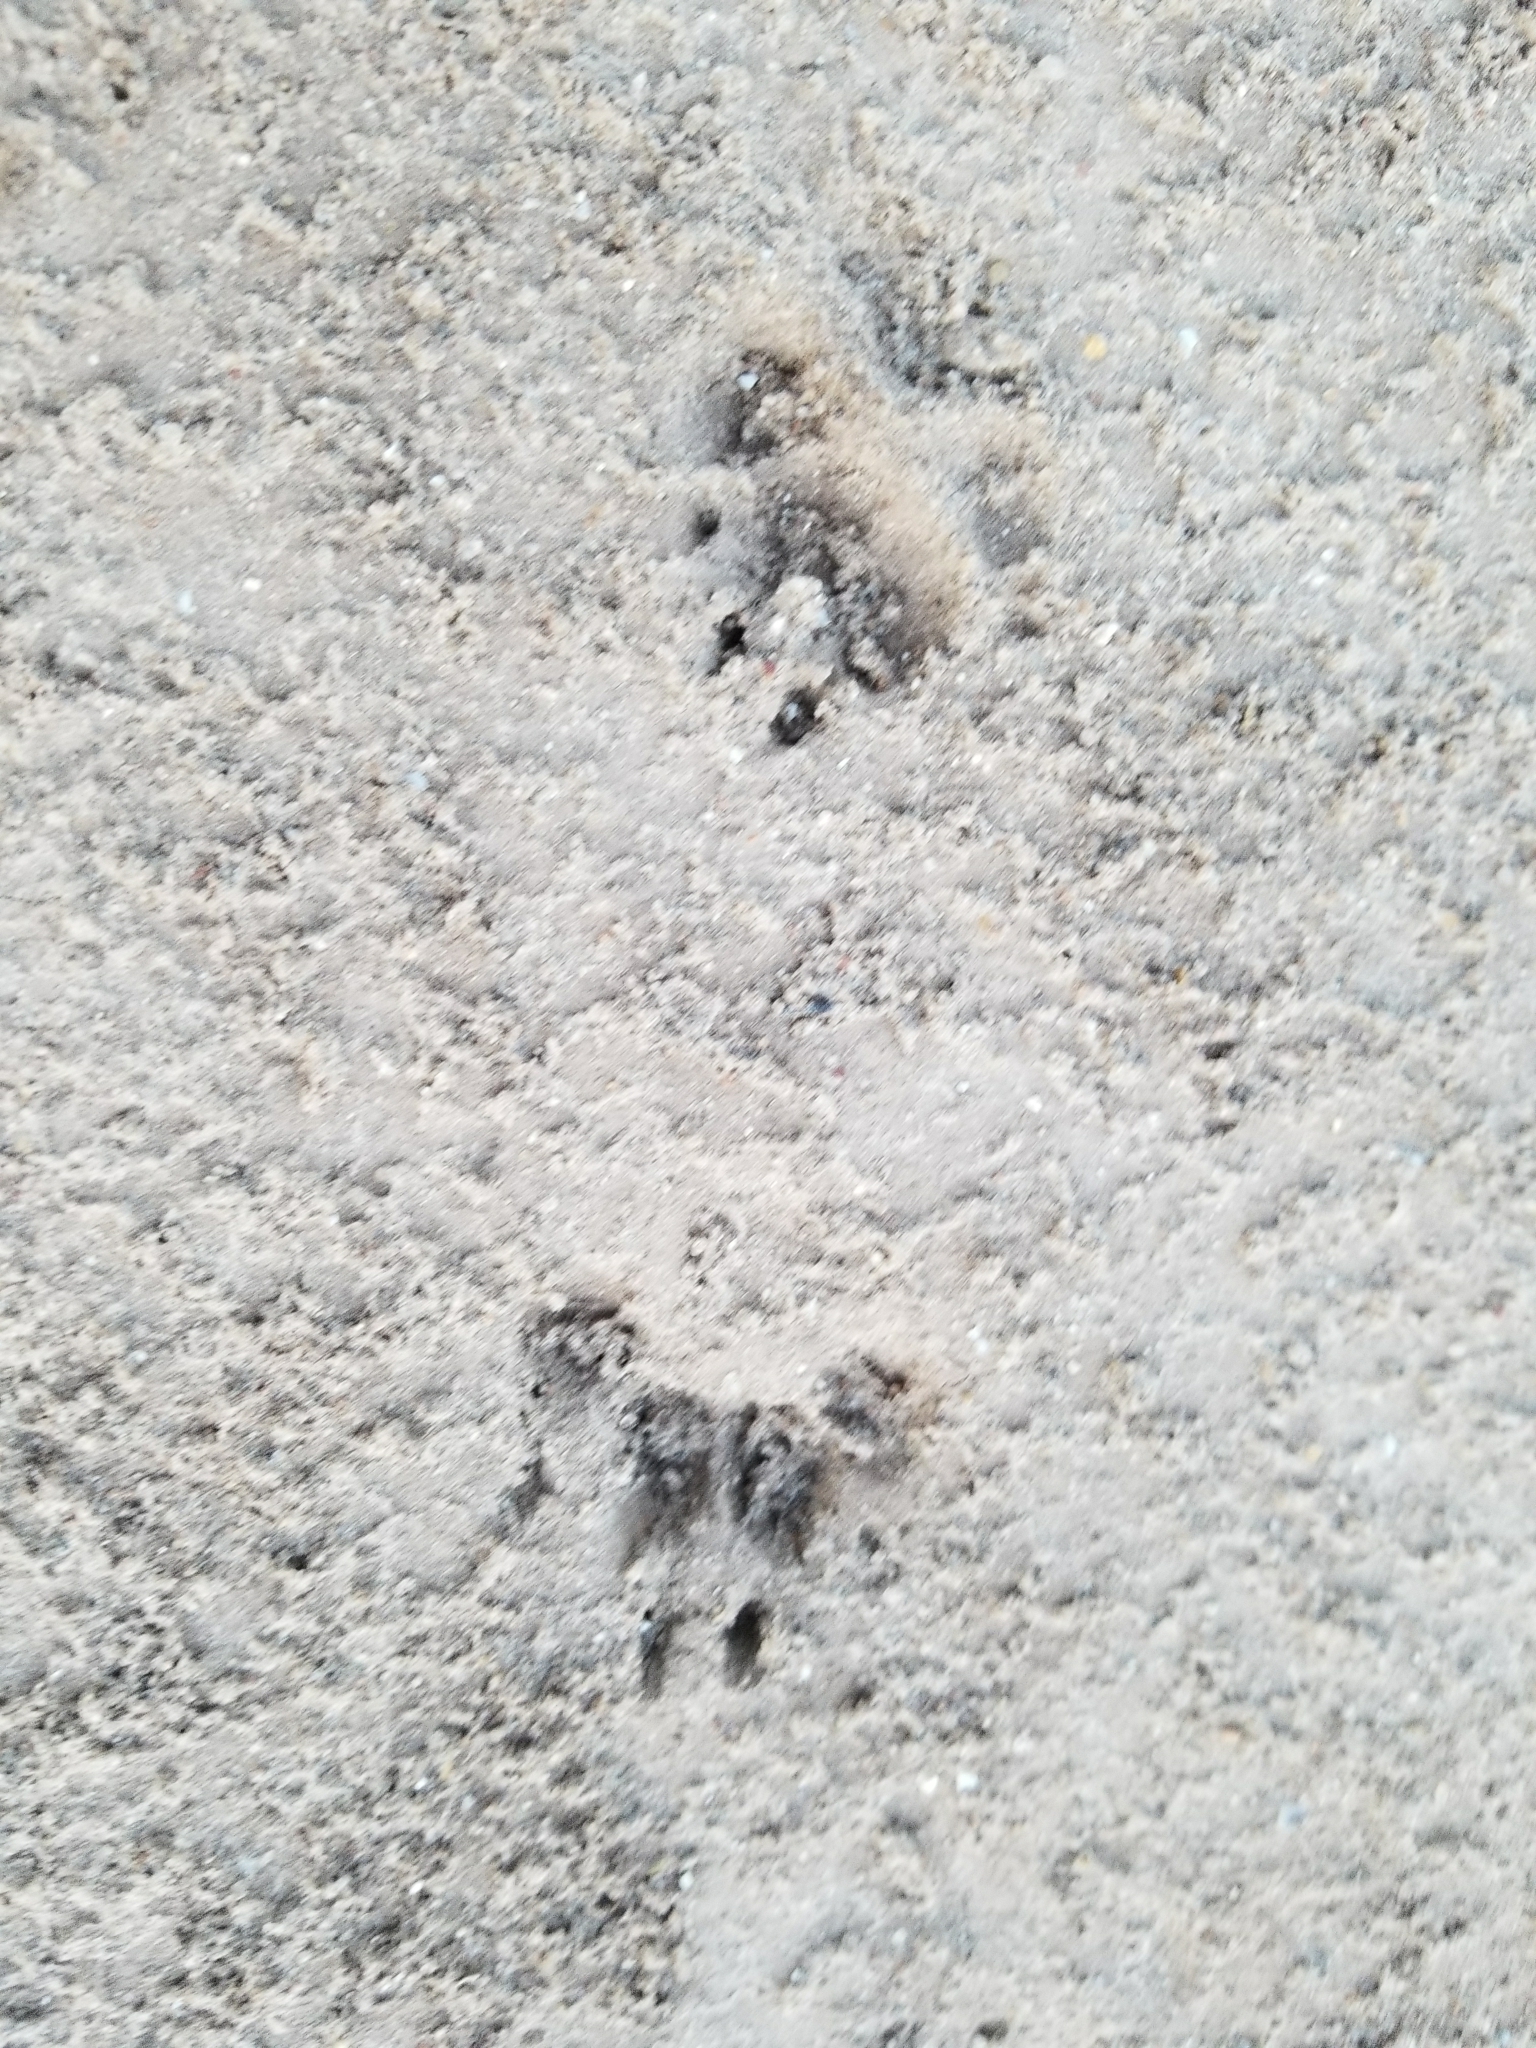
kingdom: Animalia
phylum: Chordata
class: Mammalia
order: Carnivora
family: Canidae
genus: Canis
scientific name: Canis lupus
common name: Gray wolf
